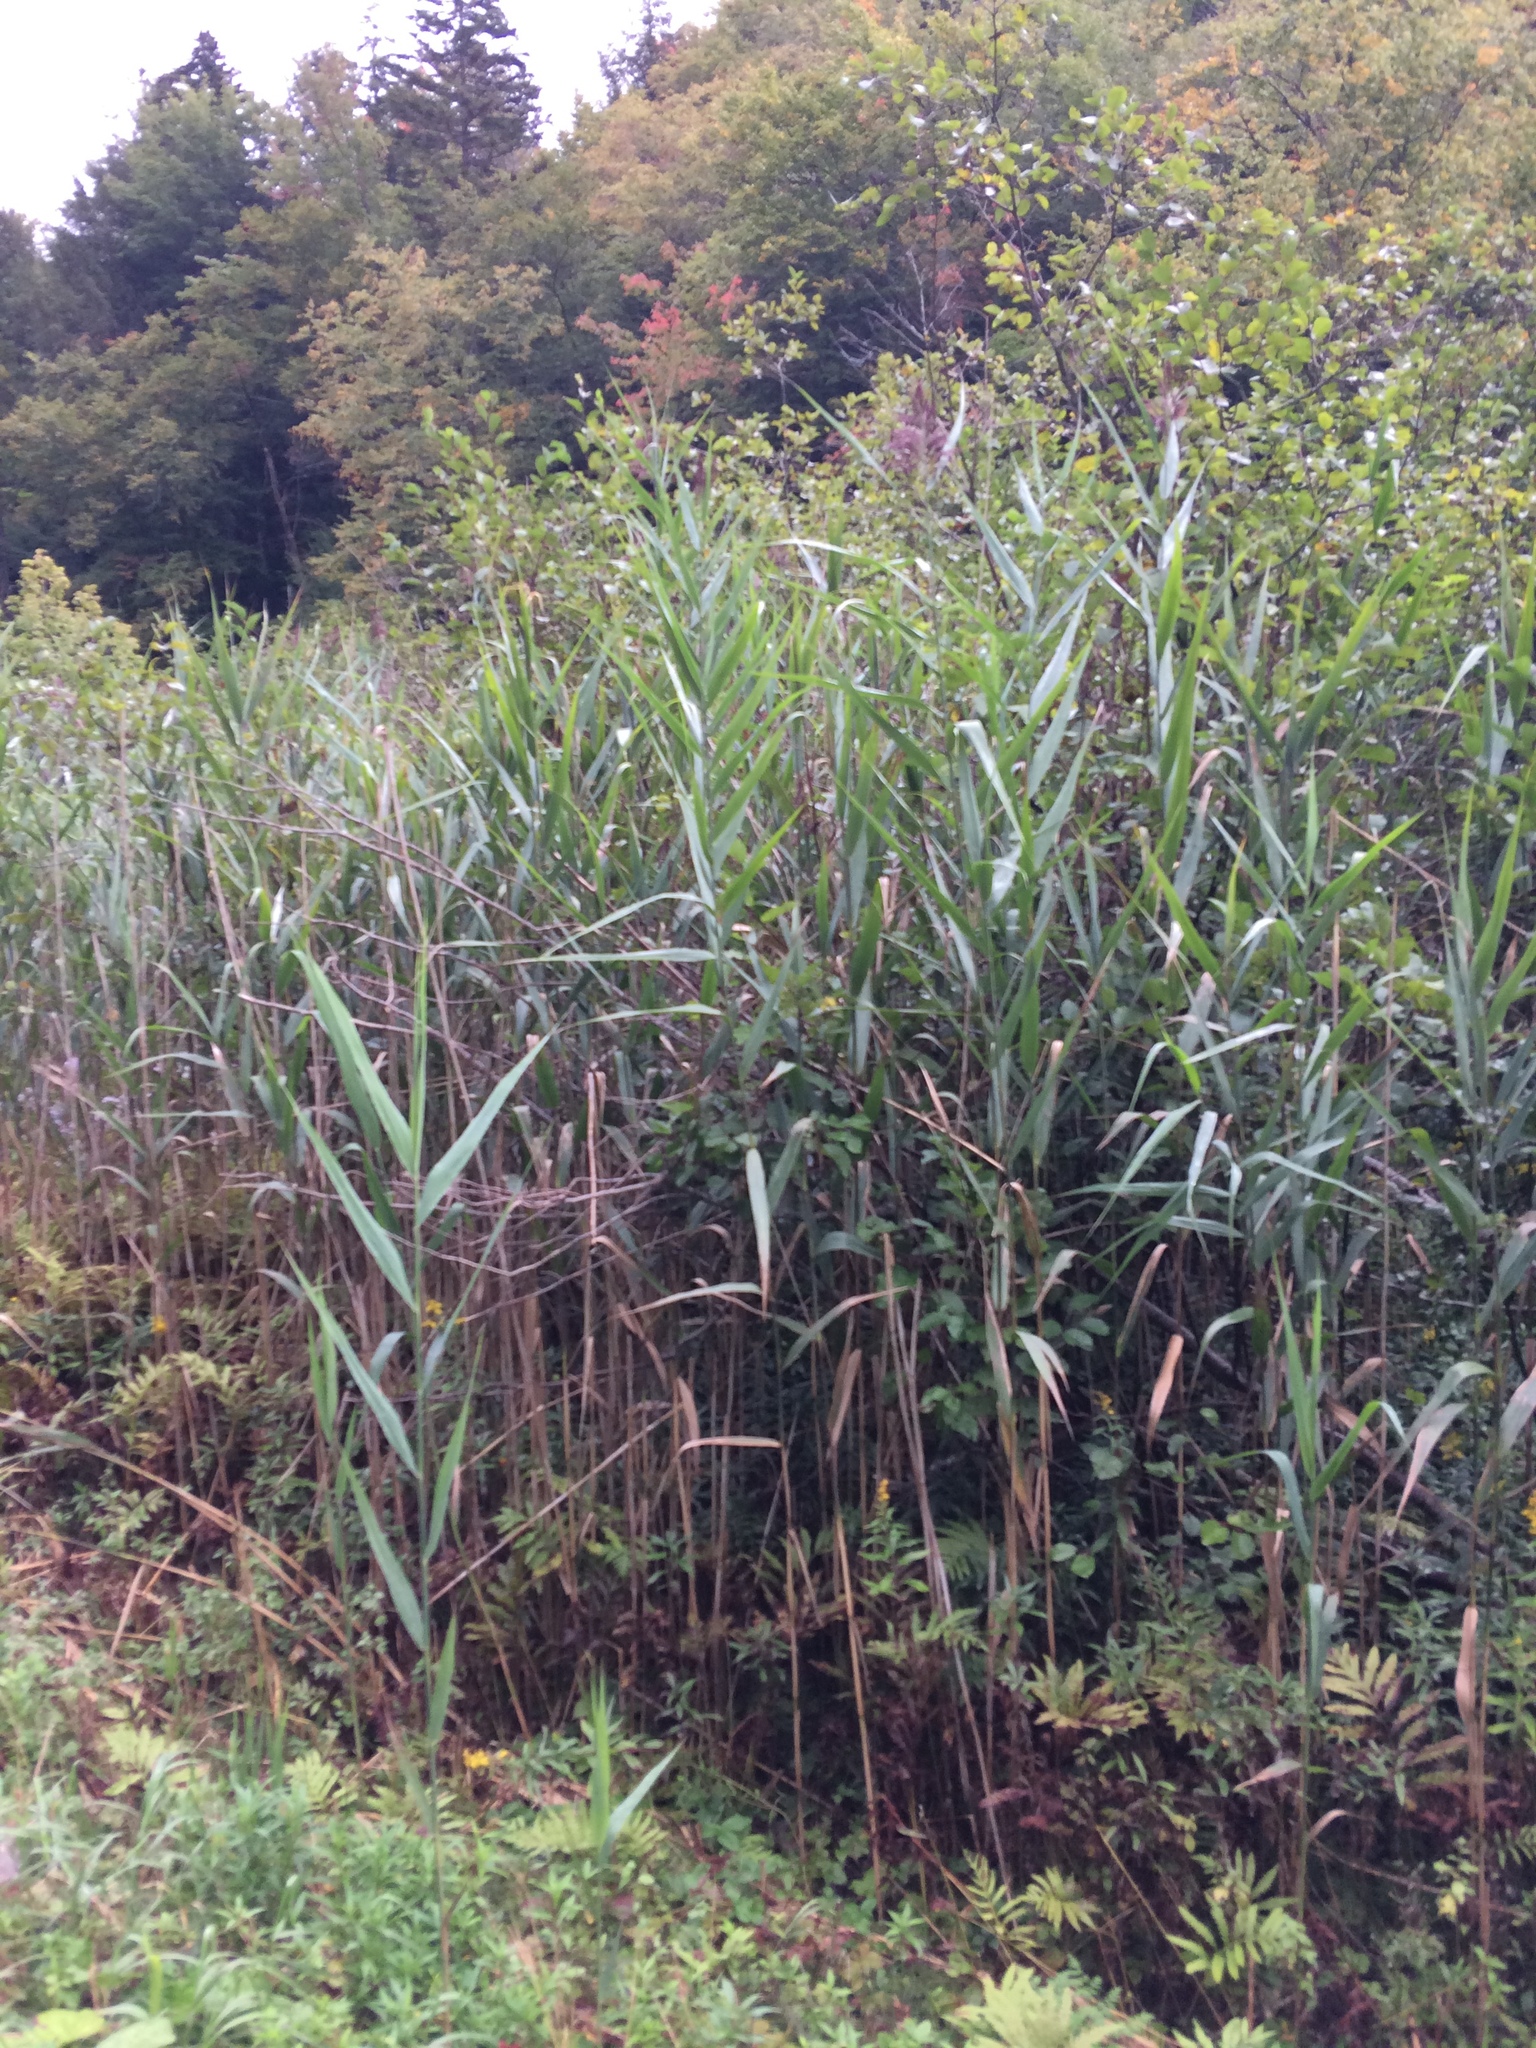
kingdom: Plantae
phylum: Tracheophyta
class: Liliopsida
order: Poales
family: Poaceae
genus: Phragmites
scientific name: Phragmites australis
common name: Common reed
